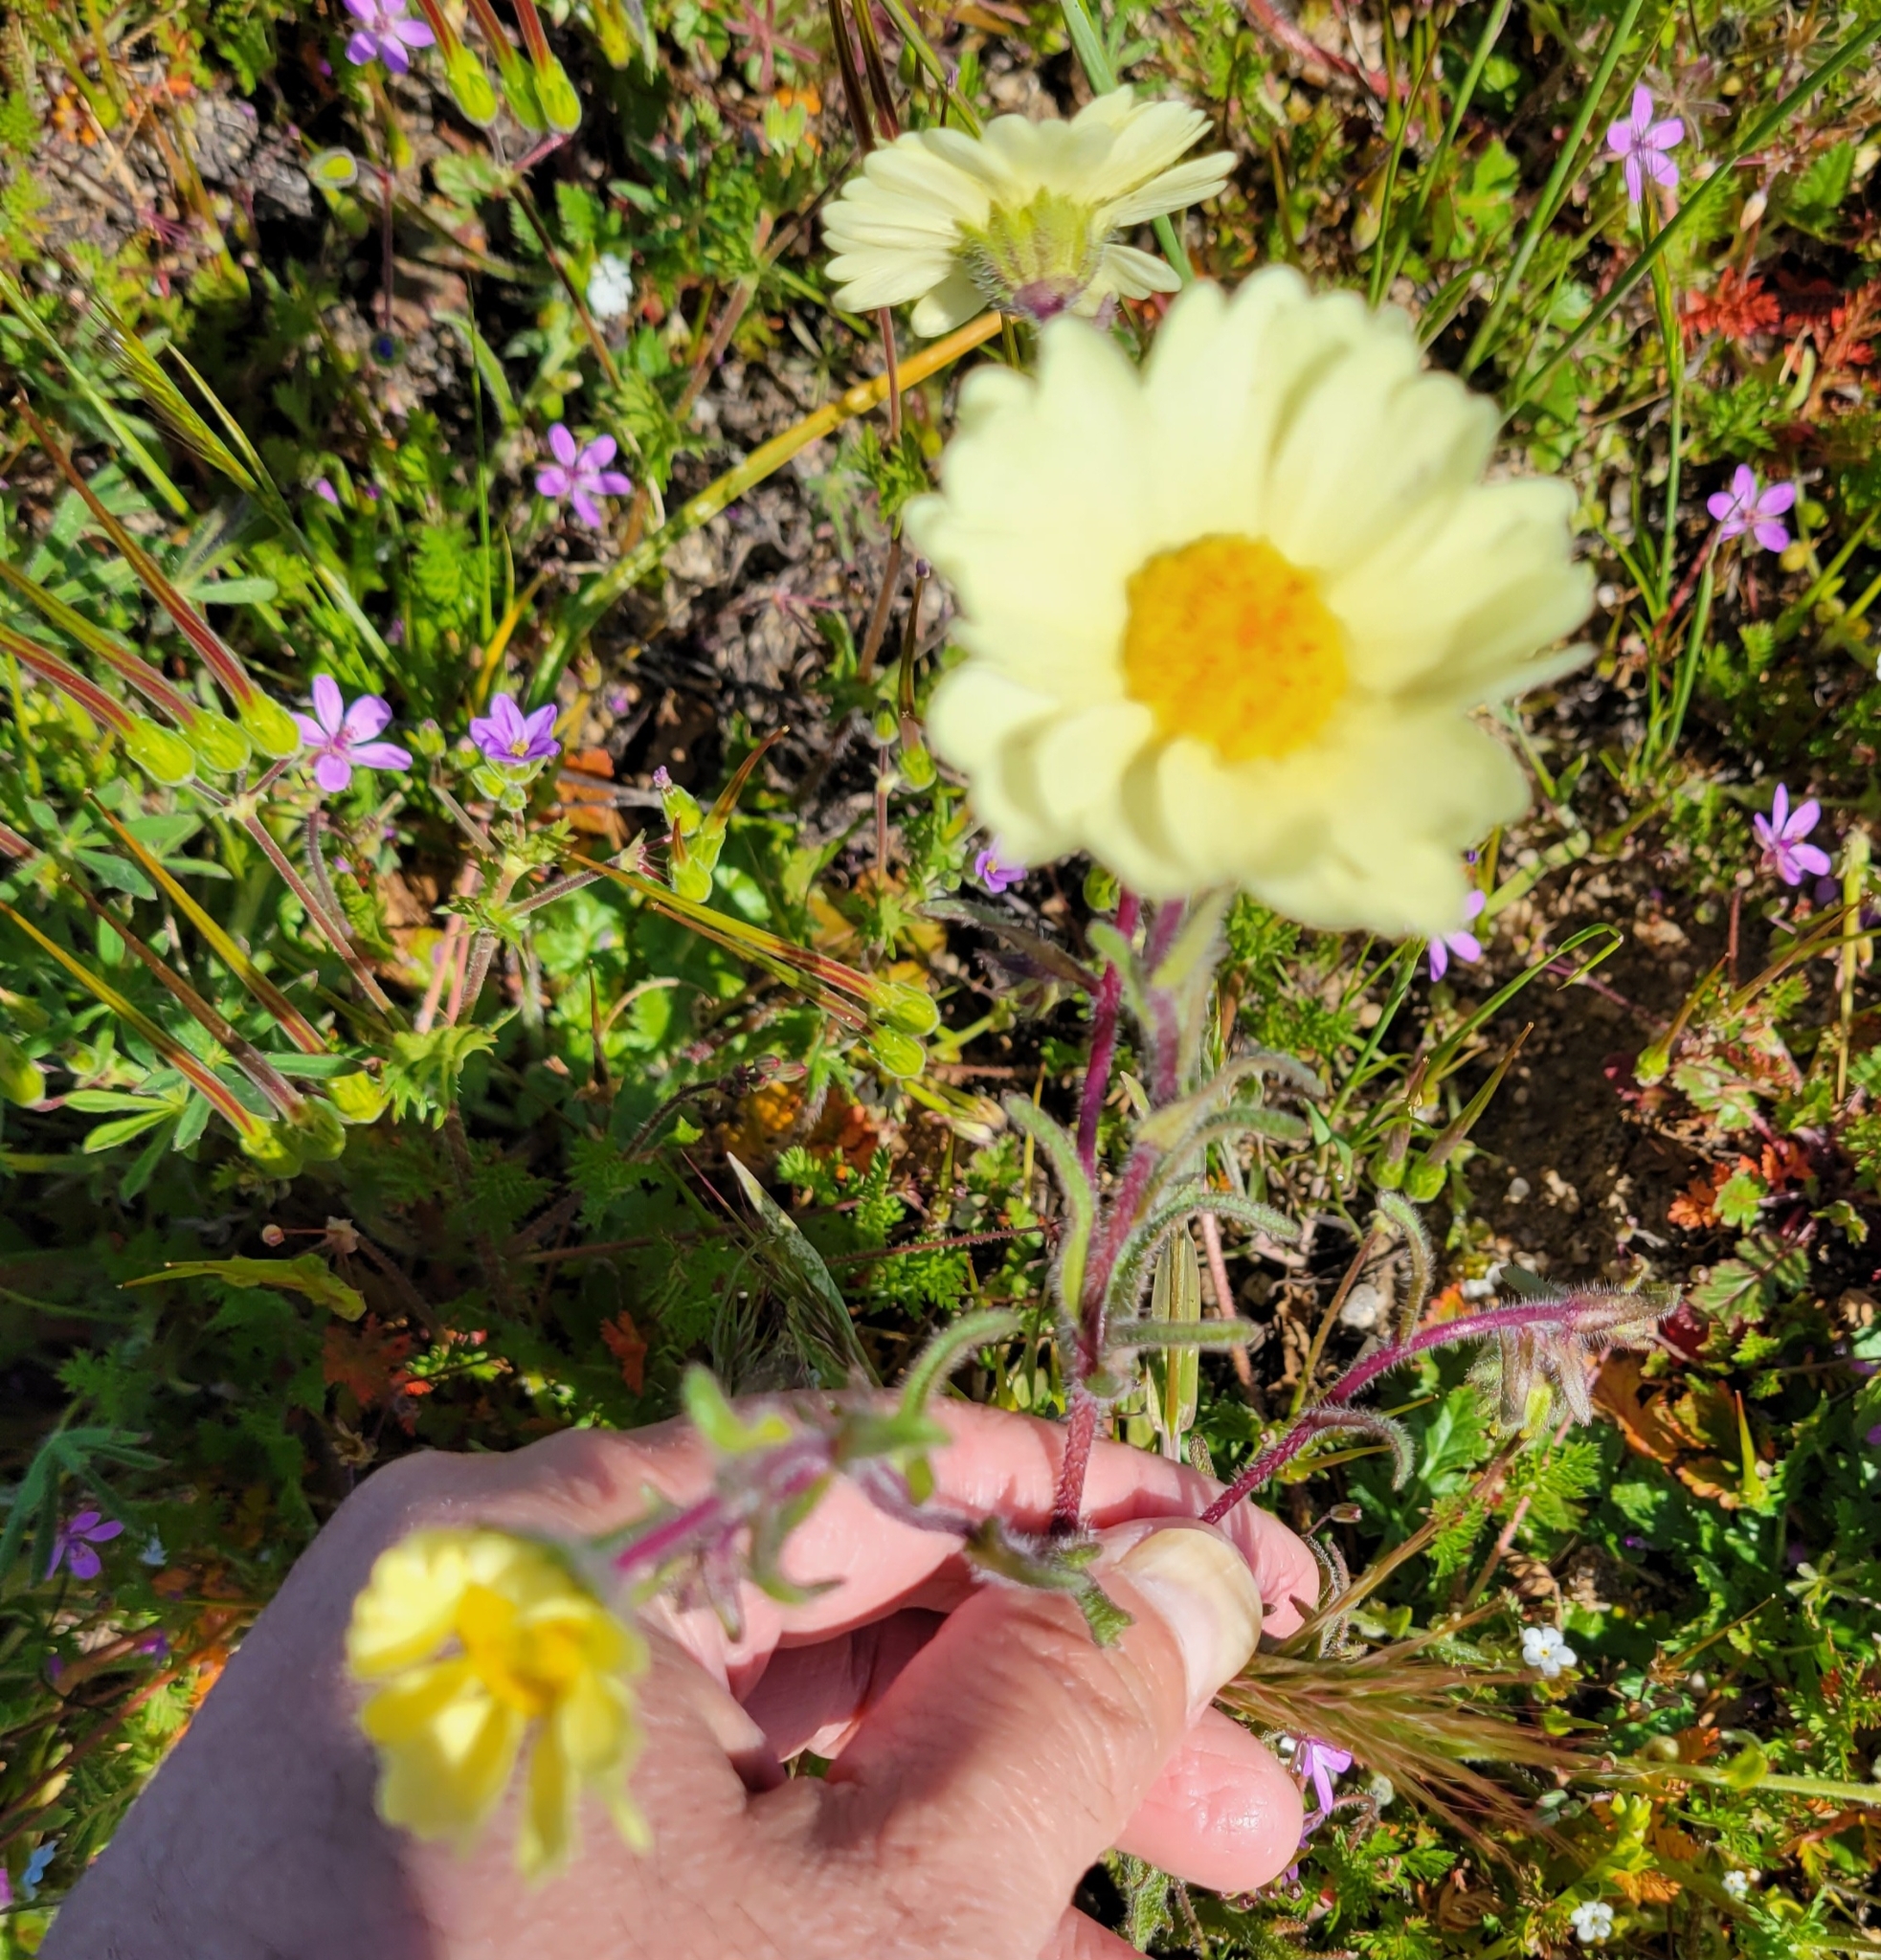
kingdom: Plantae
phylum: Tracheophyta
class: Magnoliopsida
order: Asterales
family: Asteraceae
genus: Layia
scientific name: Layia glandulosa
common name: White layia
